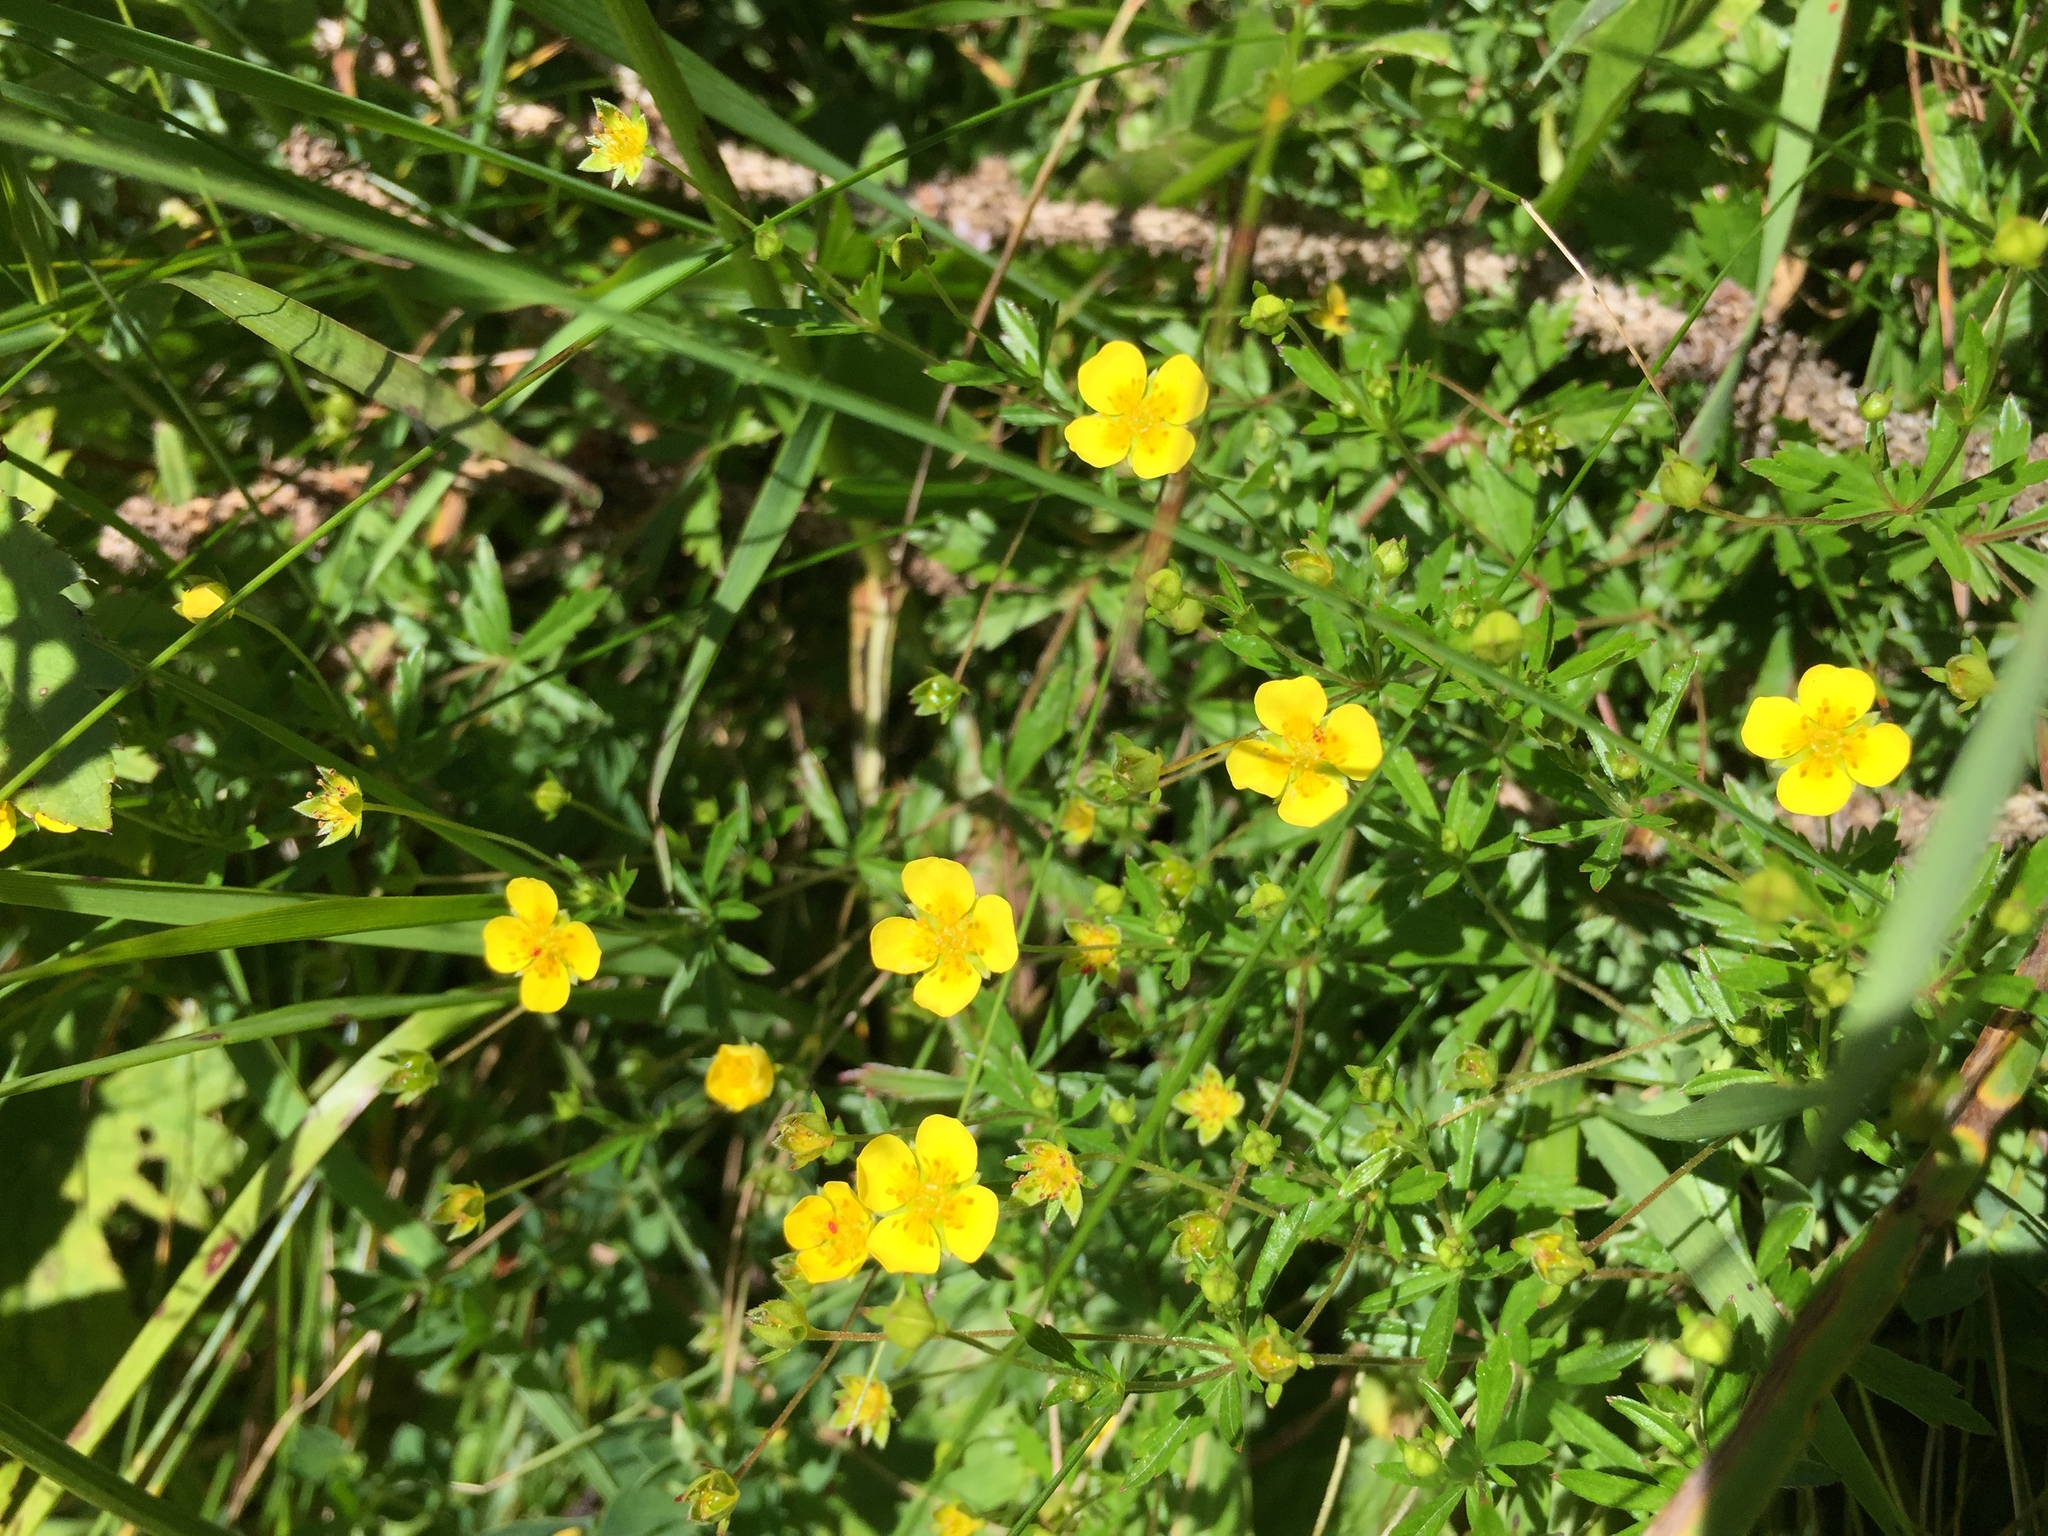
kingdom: Plantae
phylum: Tracheophyta
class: Magnoliopsida
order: Rosales
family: Rosaceae
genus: Potentilla
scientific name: Potentilla erecta
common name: Tormentil
